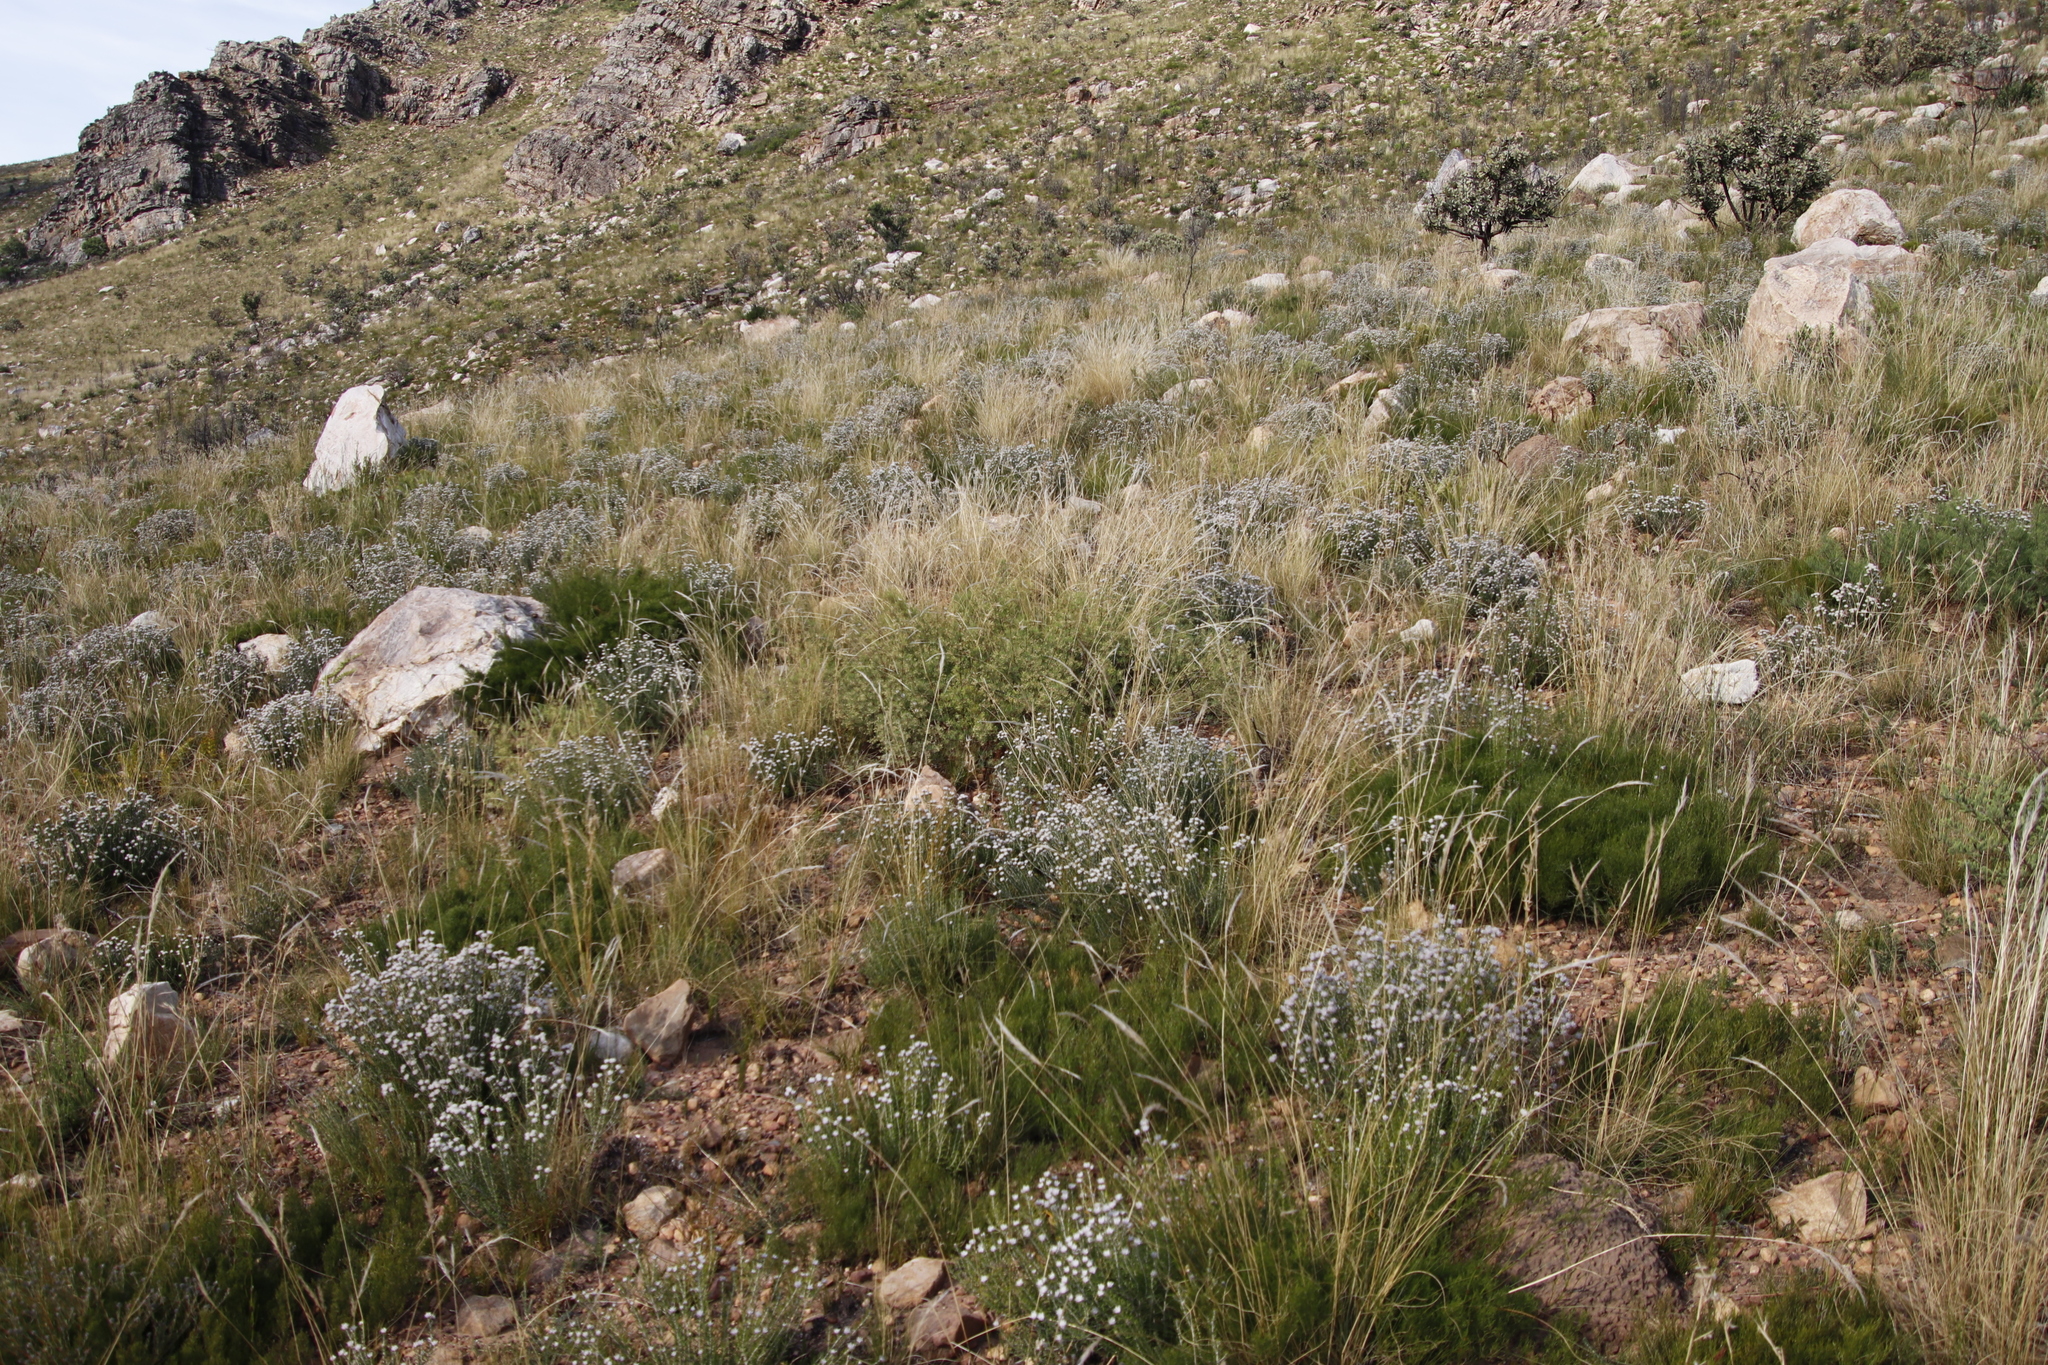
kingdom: Plantae
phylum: Tracheophyta
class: Magnoliopsida
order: Rosales
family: Rhamnaceae
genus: Trichocephalus
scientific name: Trichocephalus stipularis
